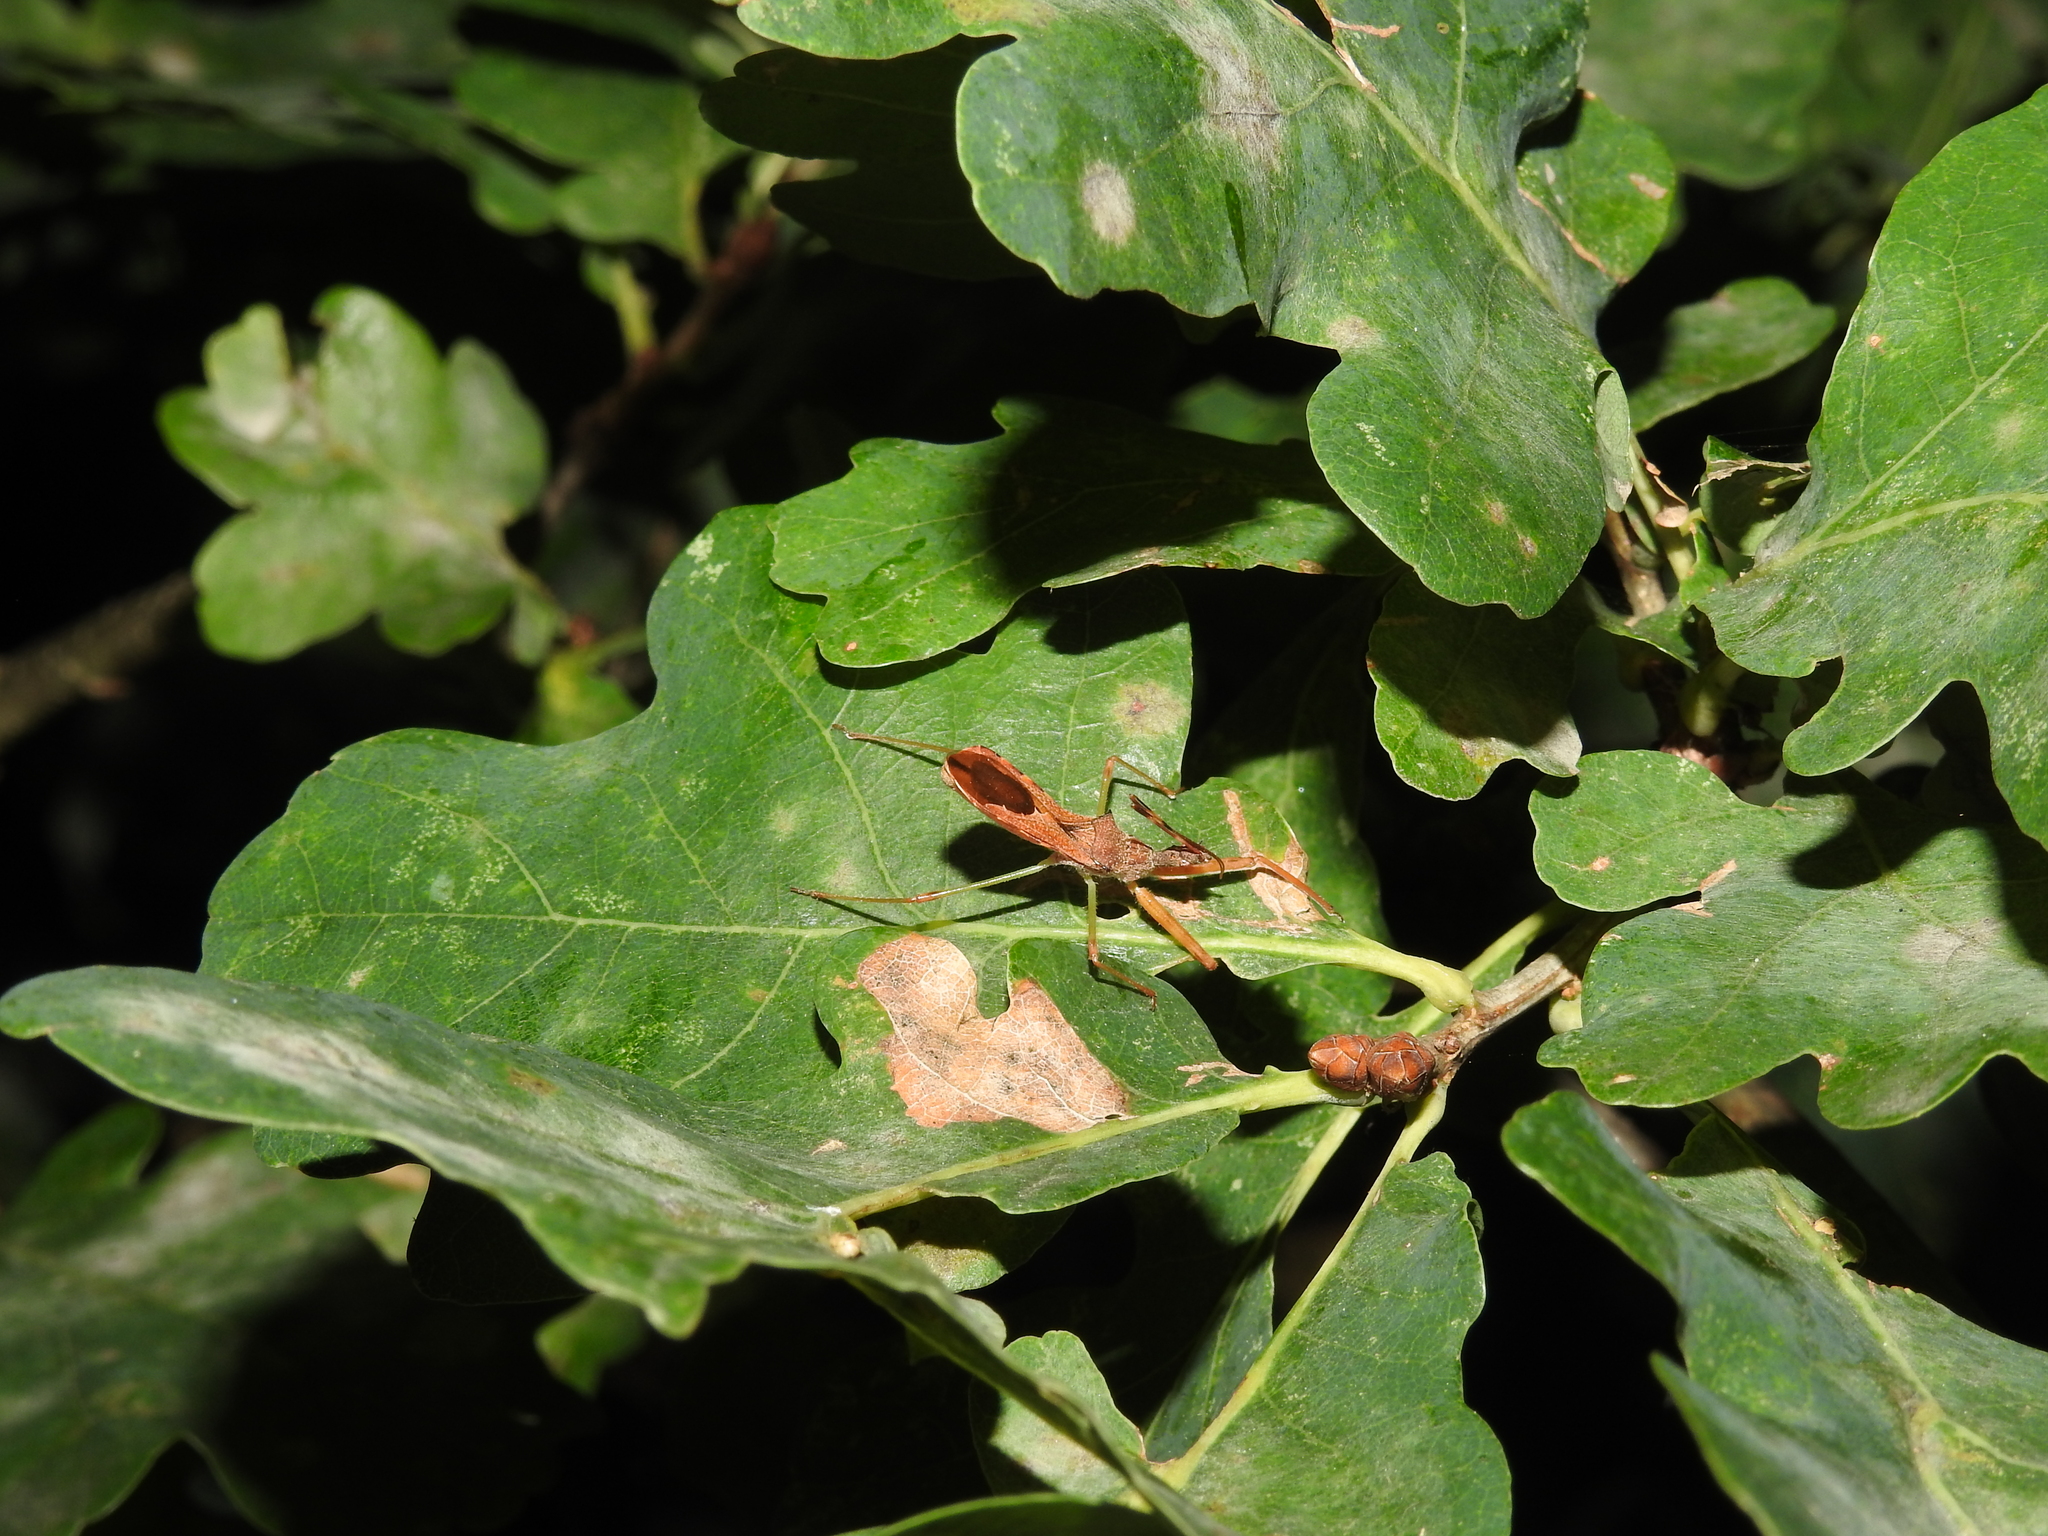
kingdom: Animalia
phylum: Arthropoda
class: Insecta
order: Hemiptera
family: Reduviidae
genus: Nagusta
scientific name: Nagusta goedelii
